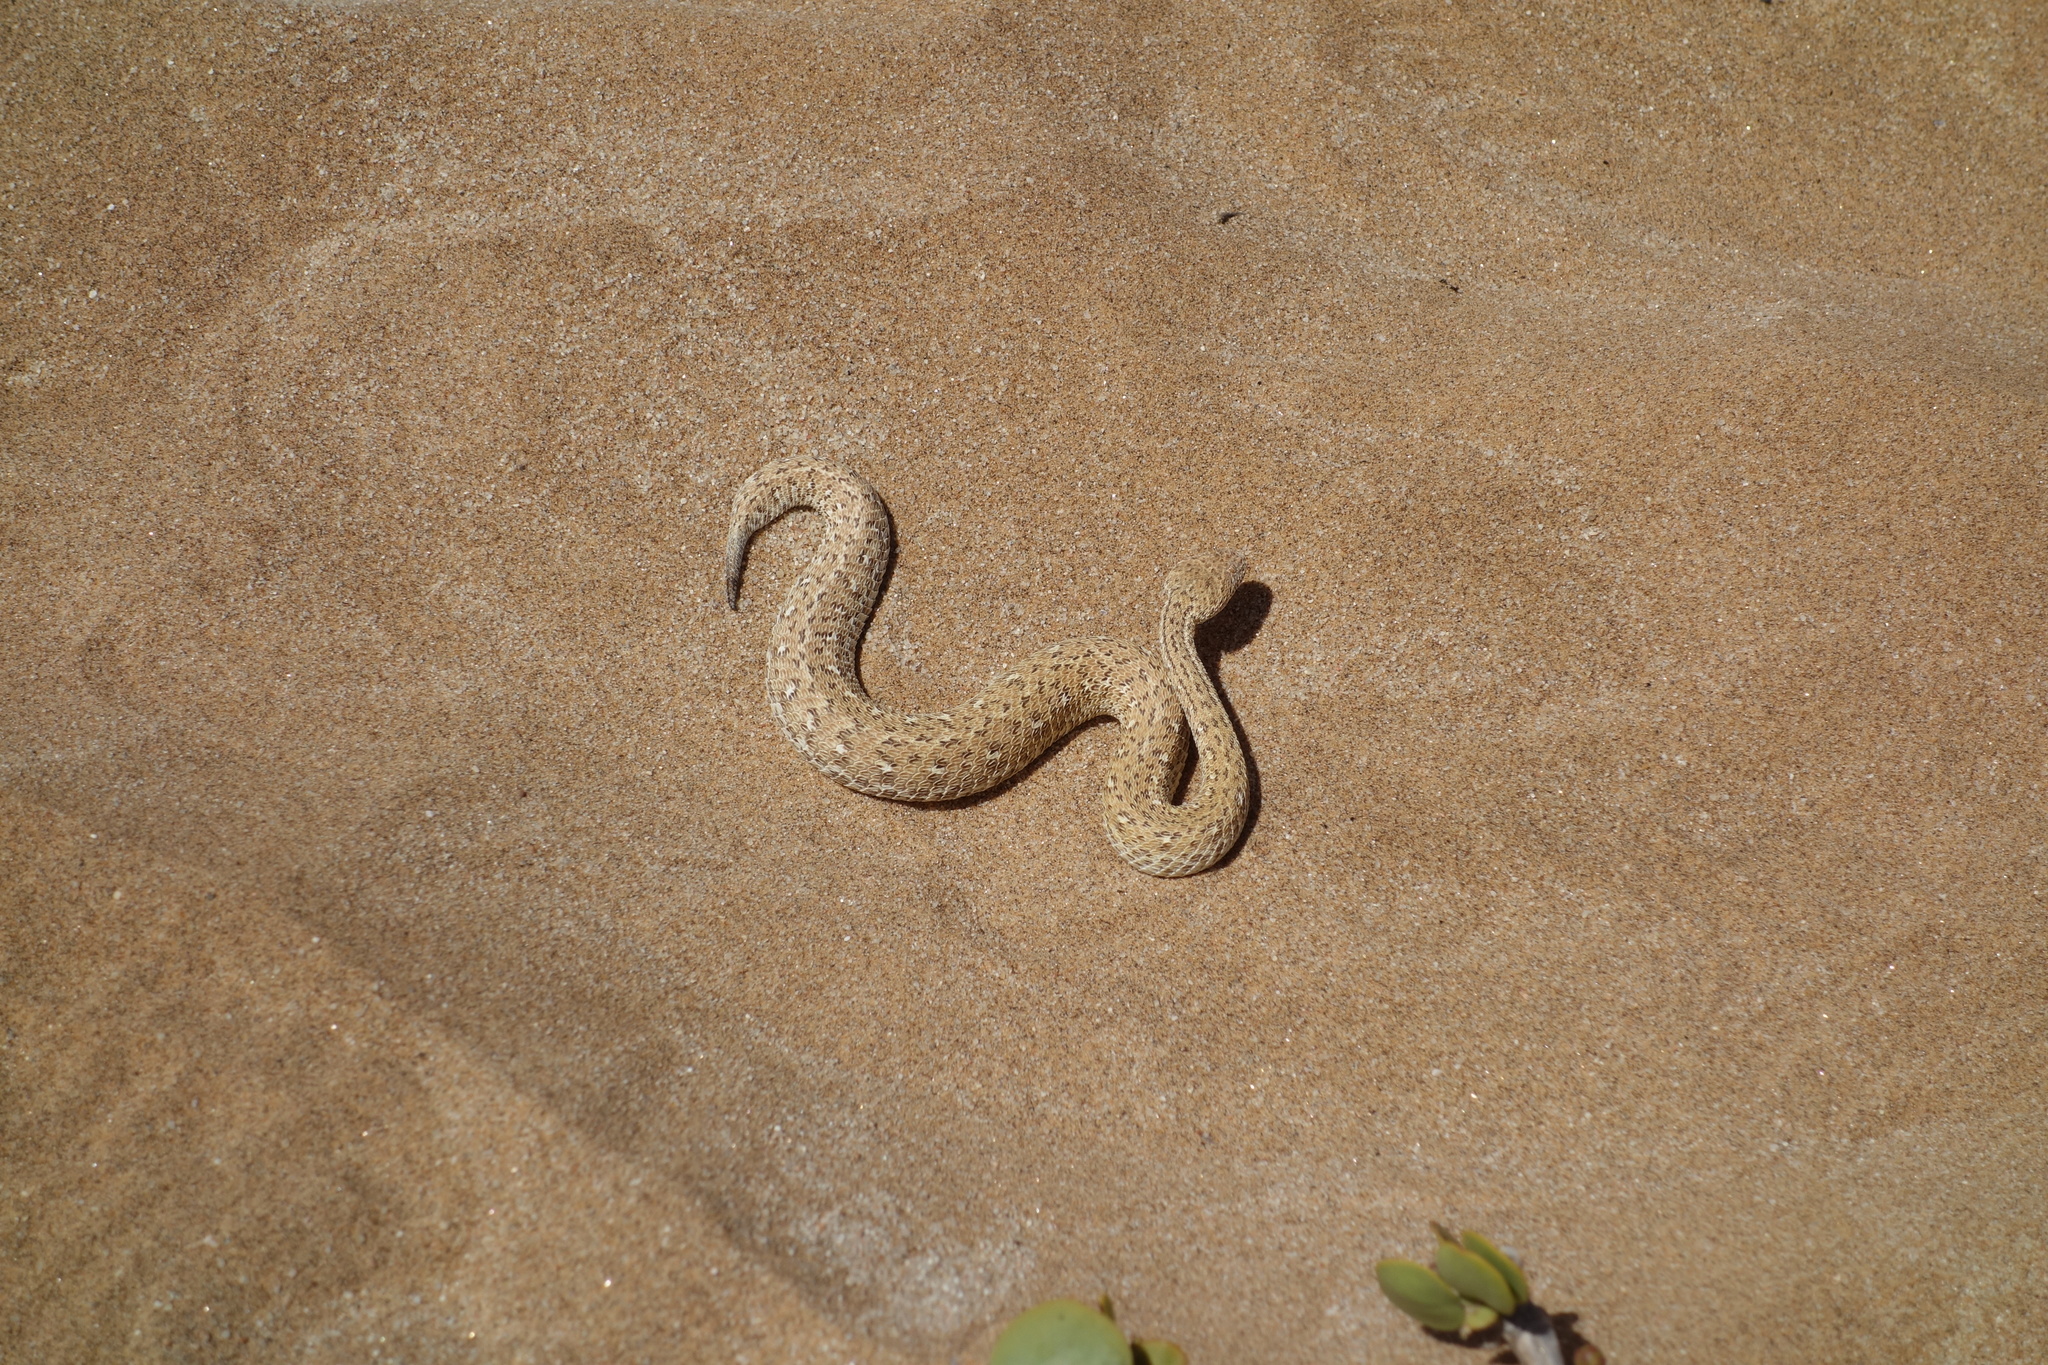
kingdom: Animalia
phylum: Chordata
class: Squamata
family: Viperidae
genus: Bitis
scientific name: Bitis peringueyi
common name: Dwarf puff adder
